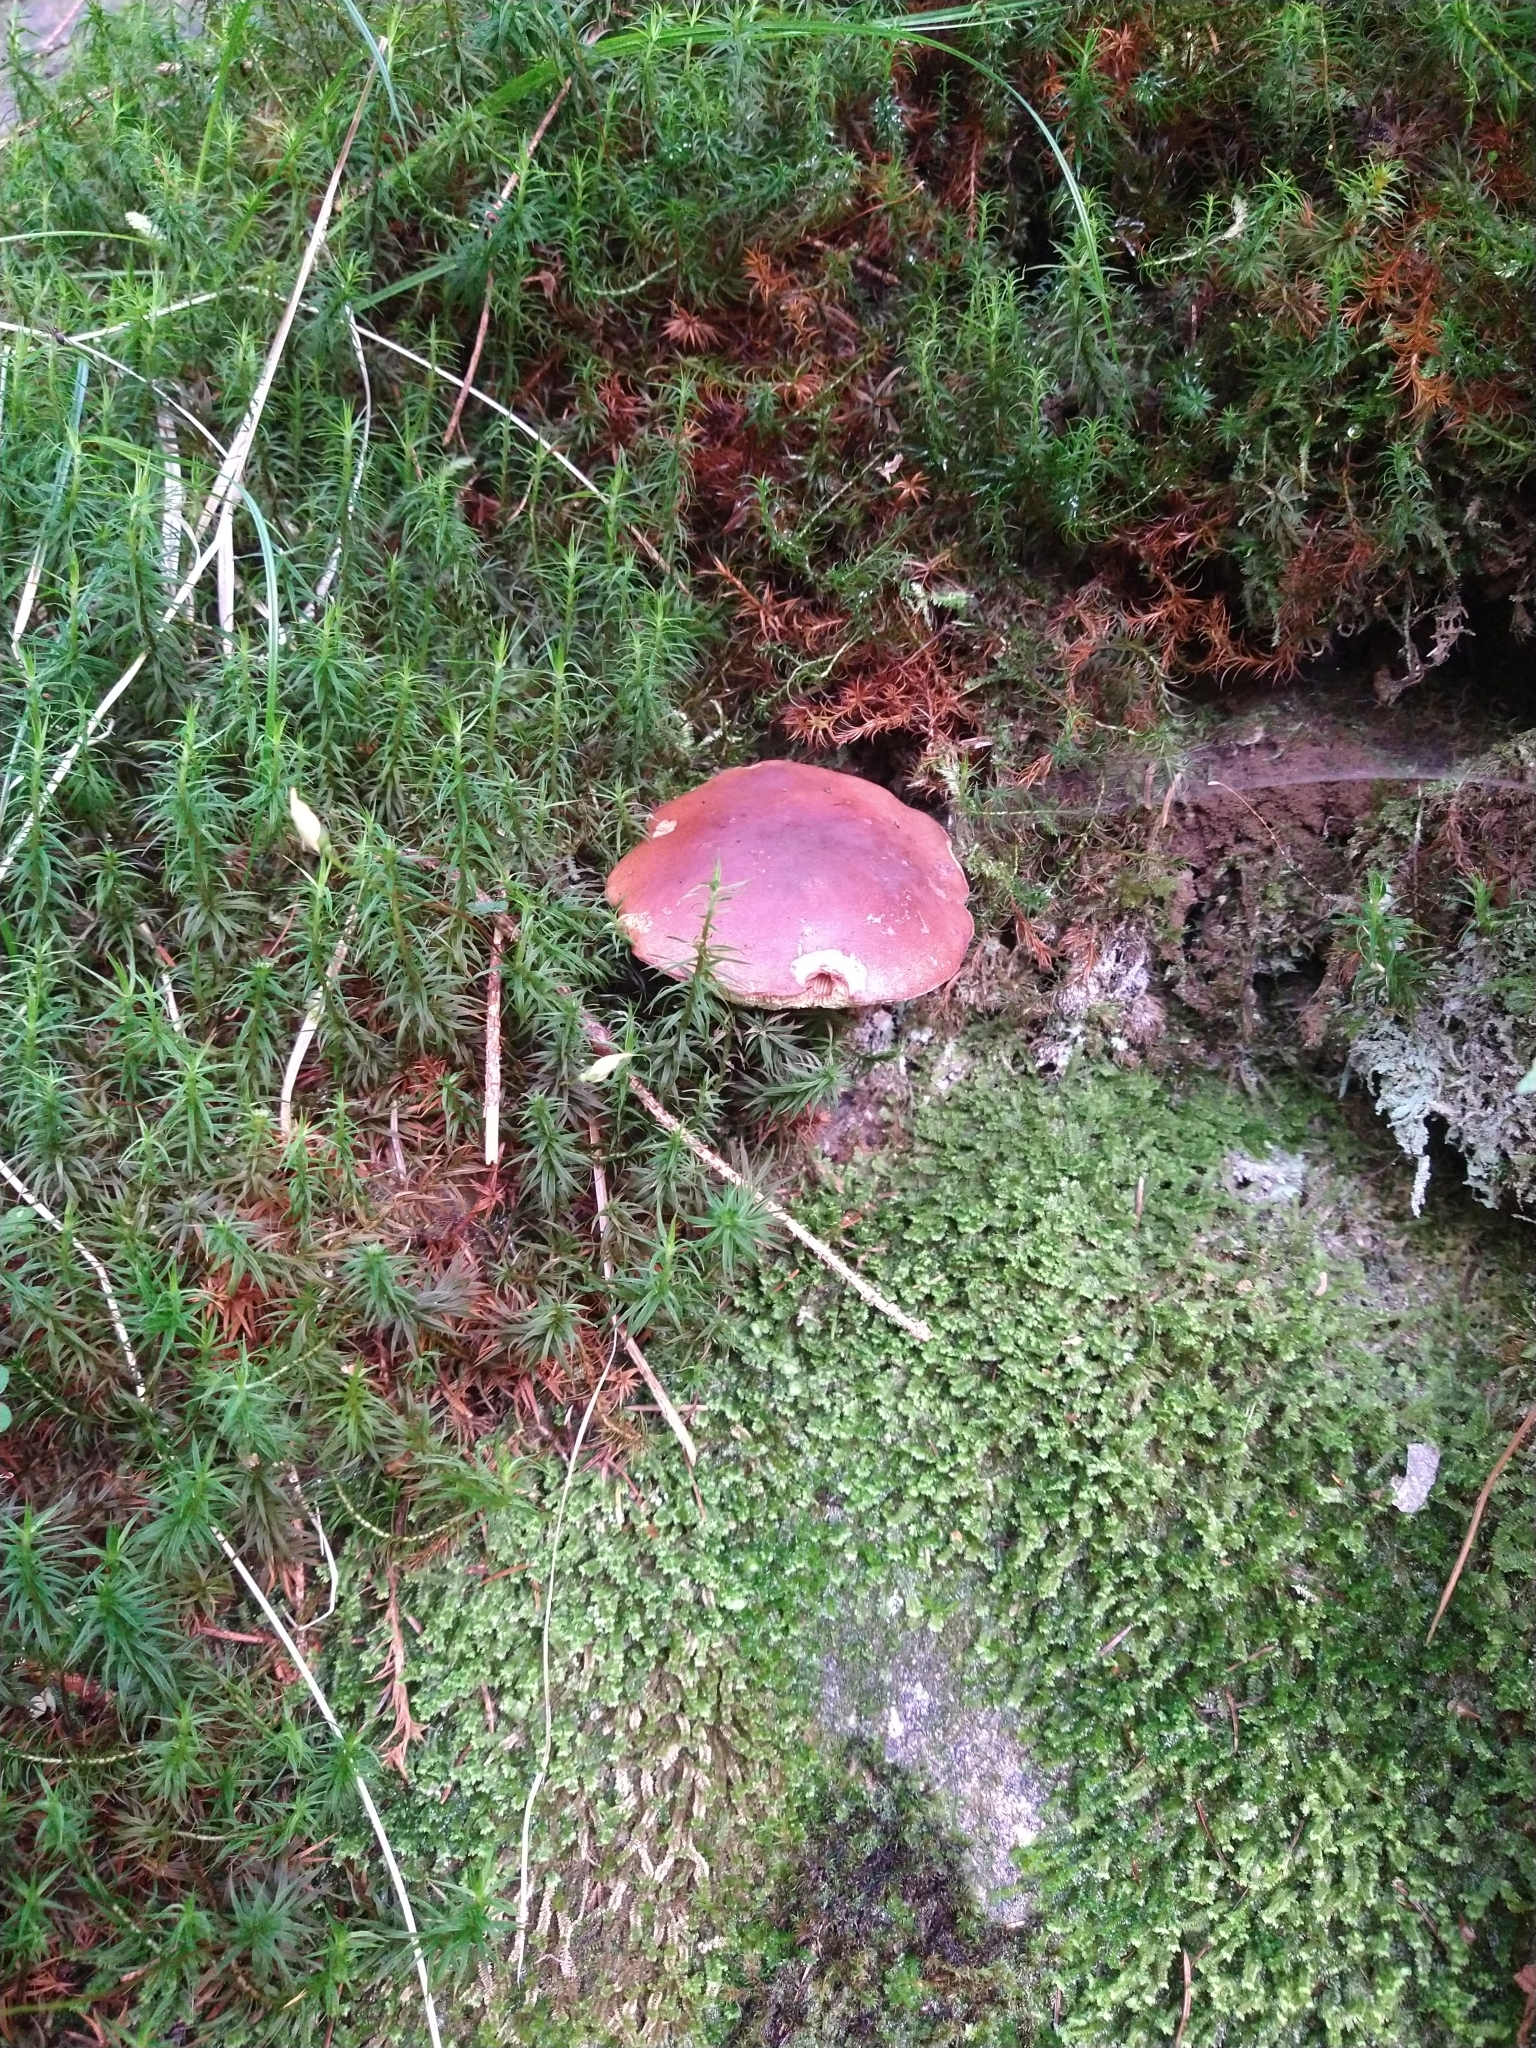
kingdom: Fungi
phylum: Basidiomycota
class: Agaricomycetes
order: Boletales
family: Boletaceae
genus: Imleria
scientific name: Imleria badia
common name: Bay bolete
